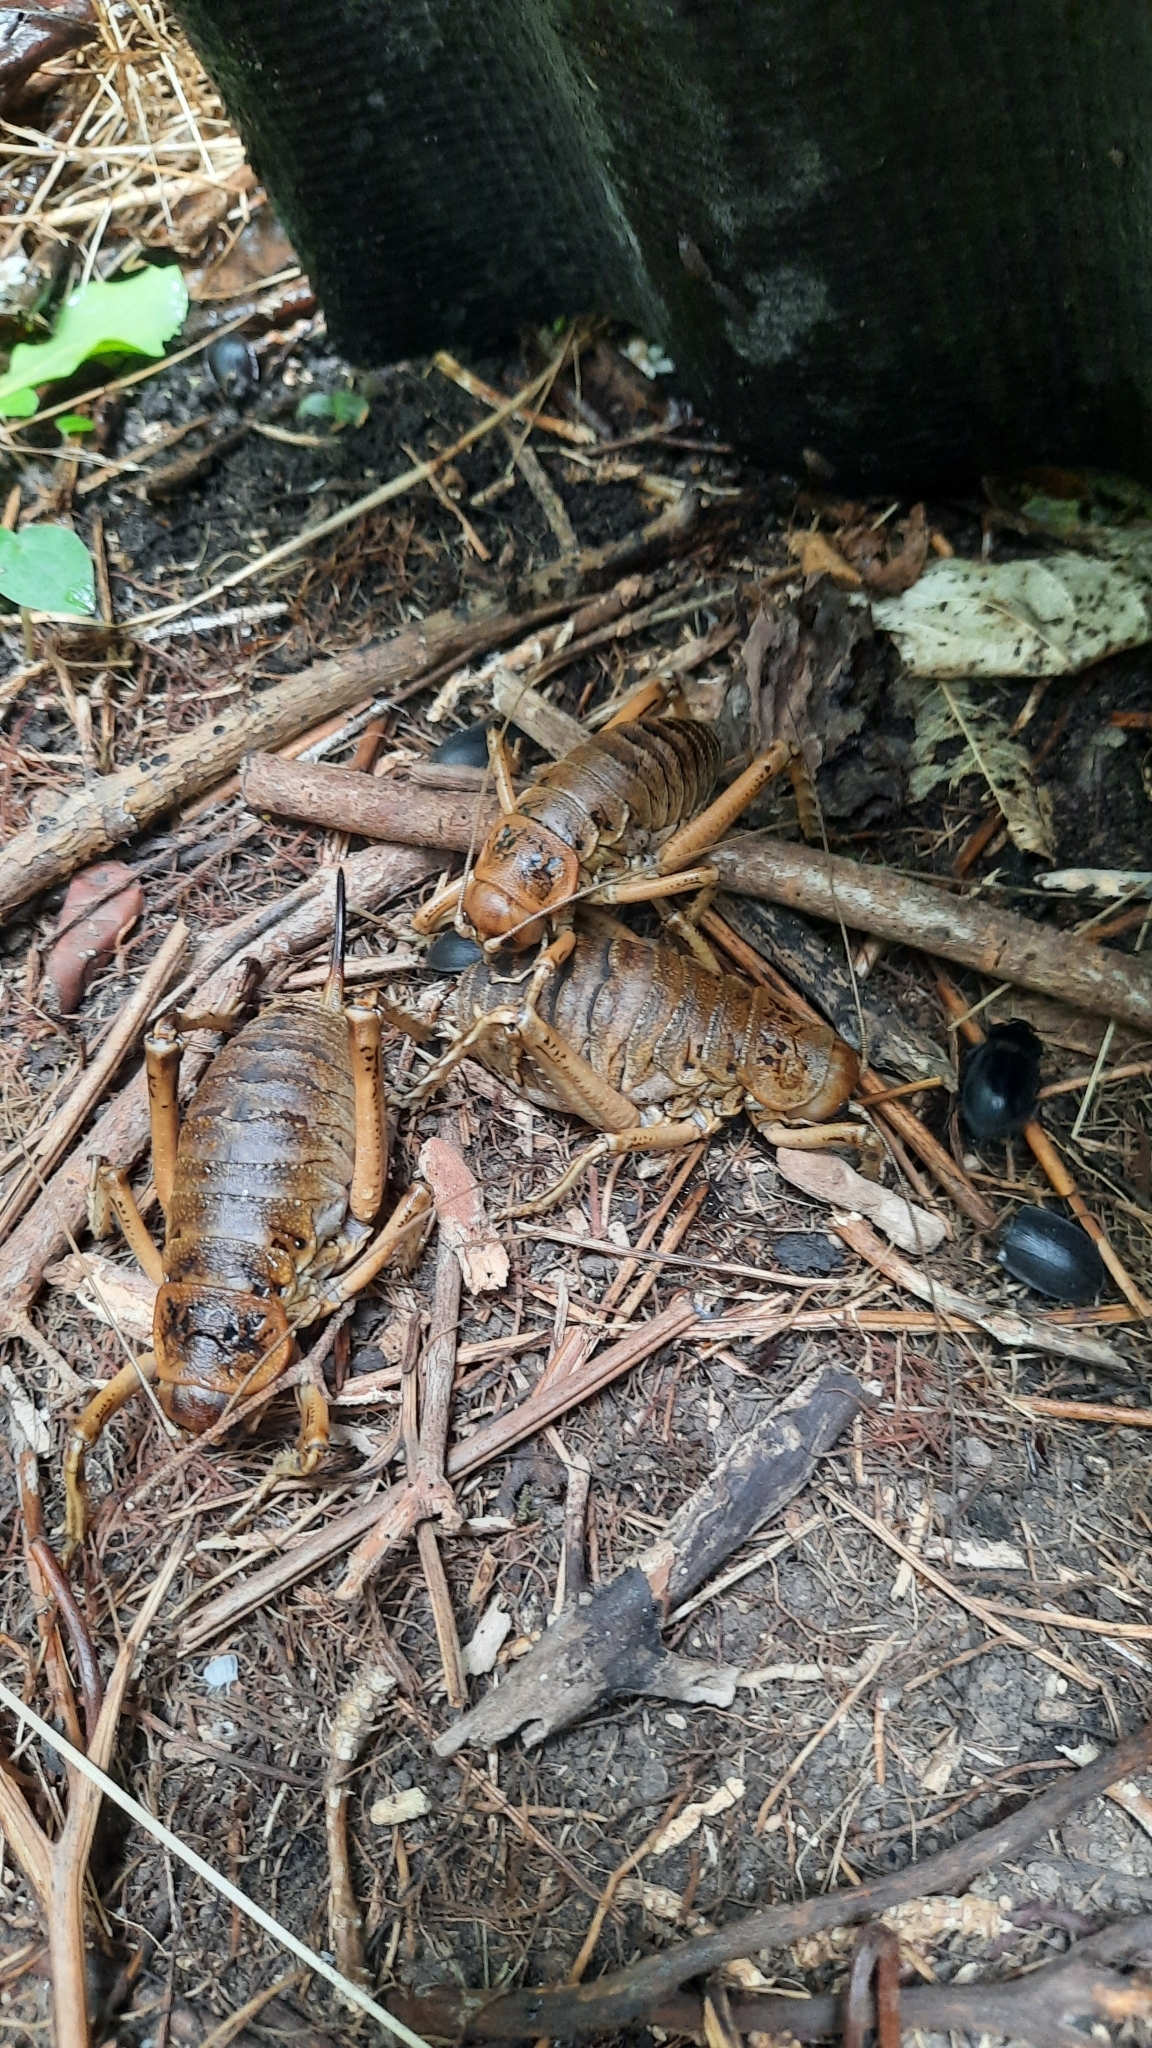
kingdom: Animalia
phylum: Arthropoda
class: Insecta
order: Orthoptera
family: Anostostomatidae
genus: Deinacrida
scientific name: Deinacrida rugosa
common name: Stephens island weta
